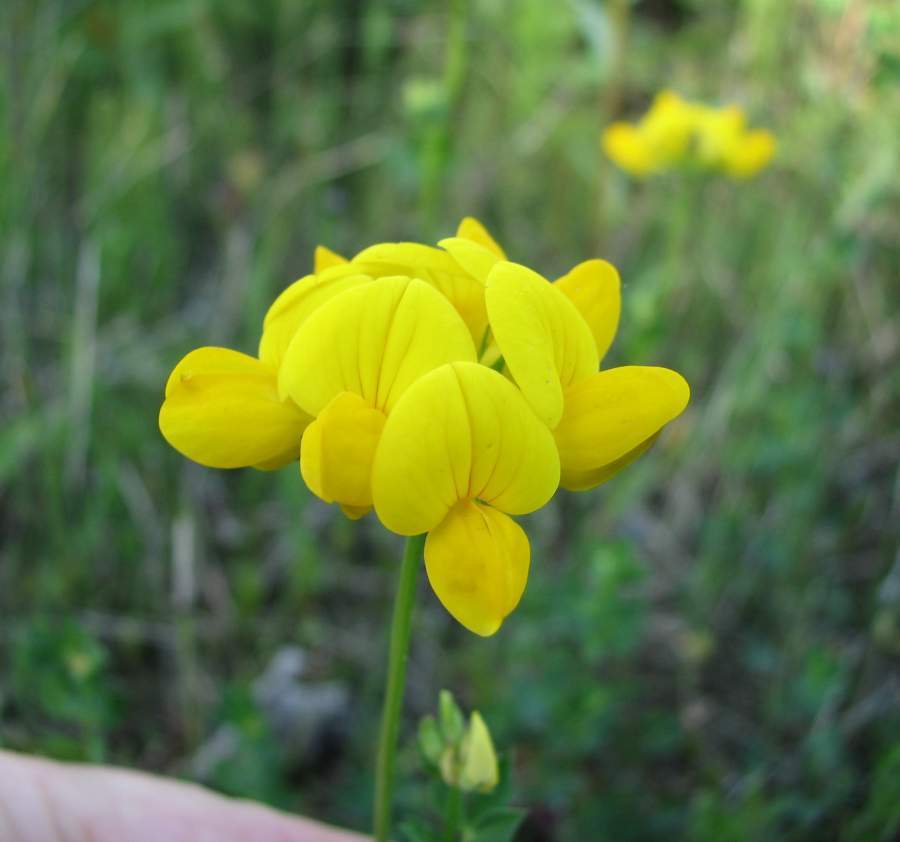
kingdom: Plantae
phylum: Tracheophyta
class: Magnoliopsida
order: Fabales
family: Fabaceae
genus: Lotus
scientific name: Lotus corniculatus
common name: Common bird's-foot-trefoil
